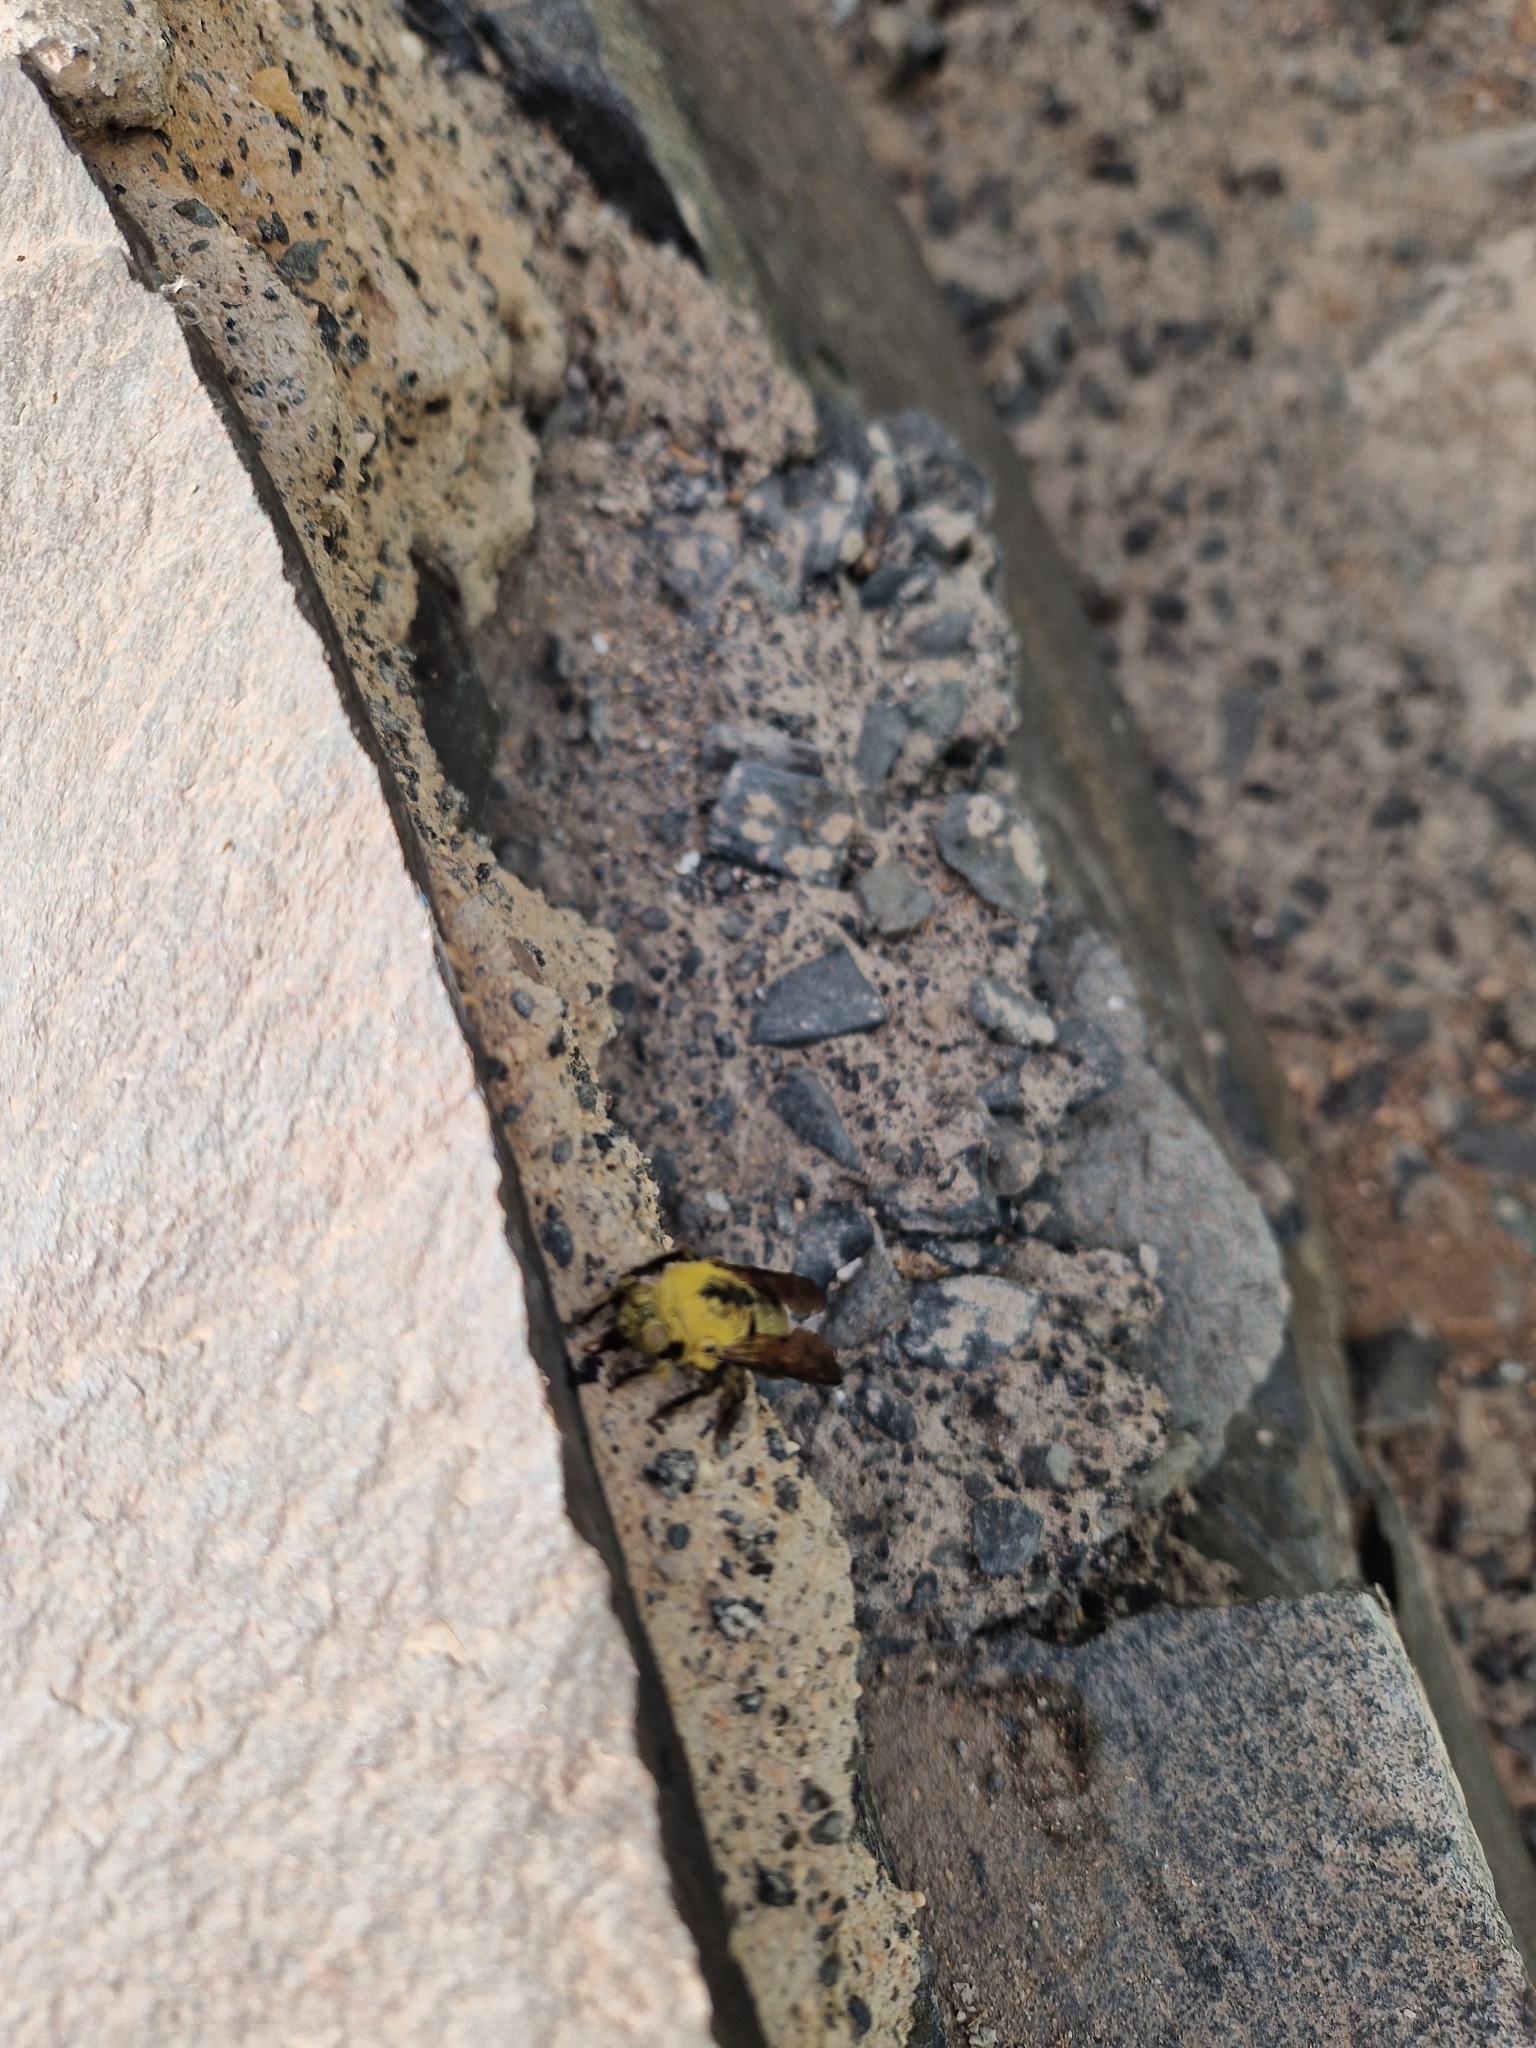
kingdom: Animalia
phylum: Arthropoda
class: Insecta
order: Hymenoptera
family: Apidae
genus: Xylocopa
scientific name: Xylocopa pubescens
